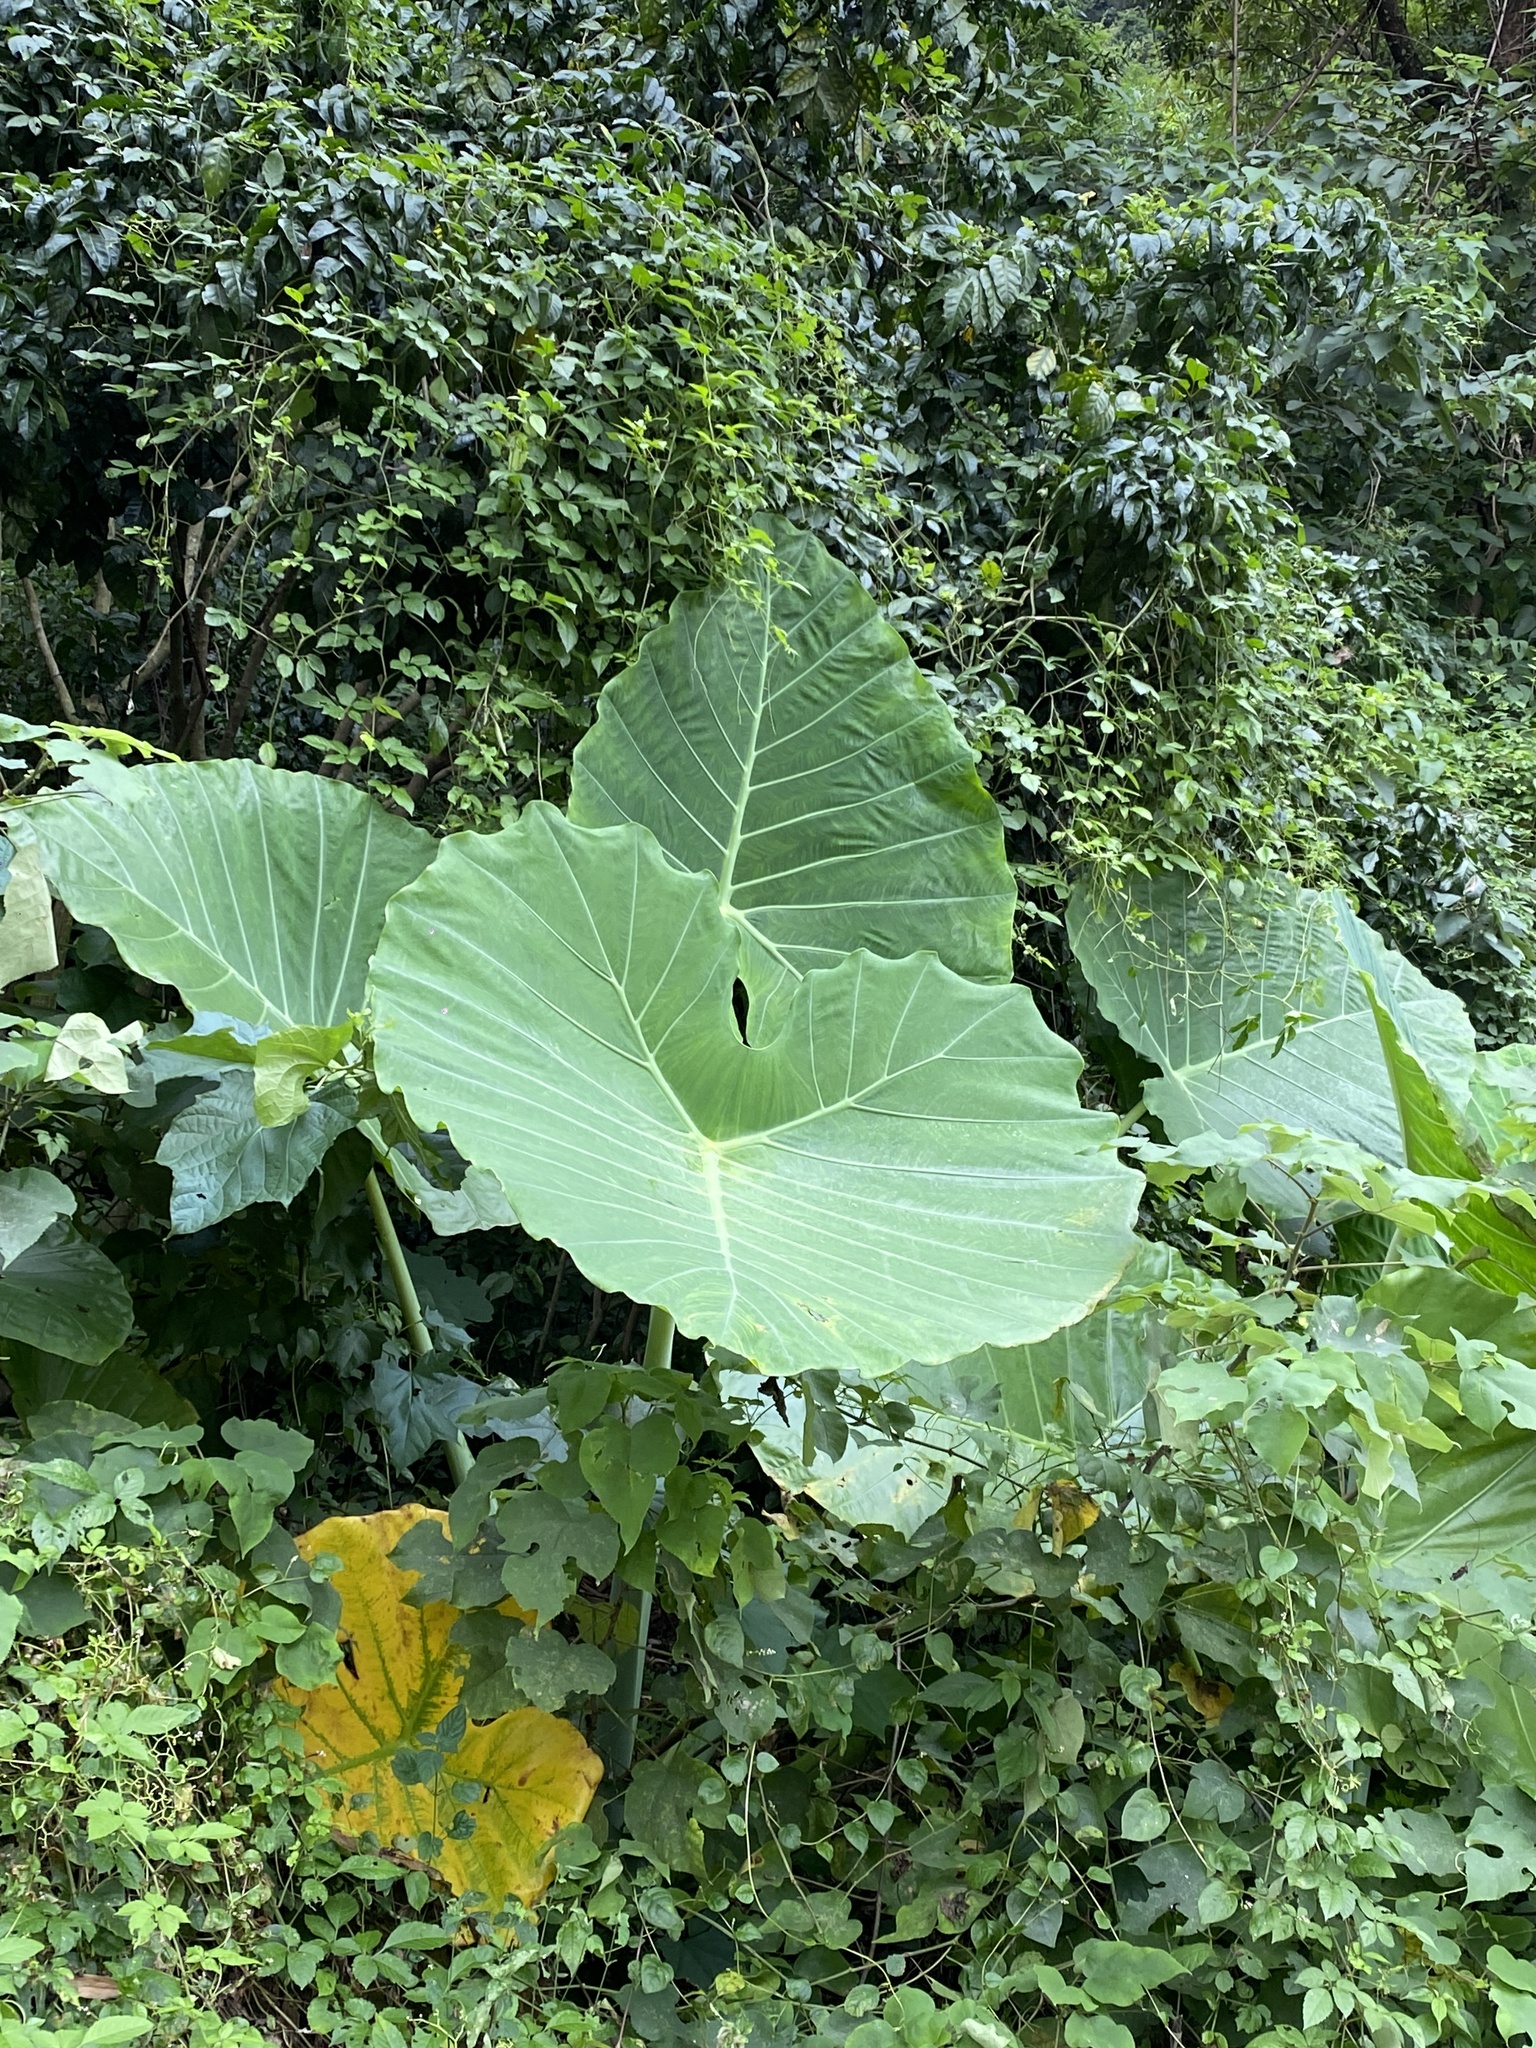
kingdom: Plantae
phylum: Tracheophyta
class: Liliopsida
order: Alismatales
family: Araceae
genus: Leucocasia
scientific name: Leucocasia gigantea
